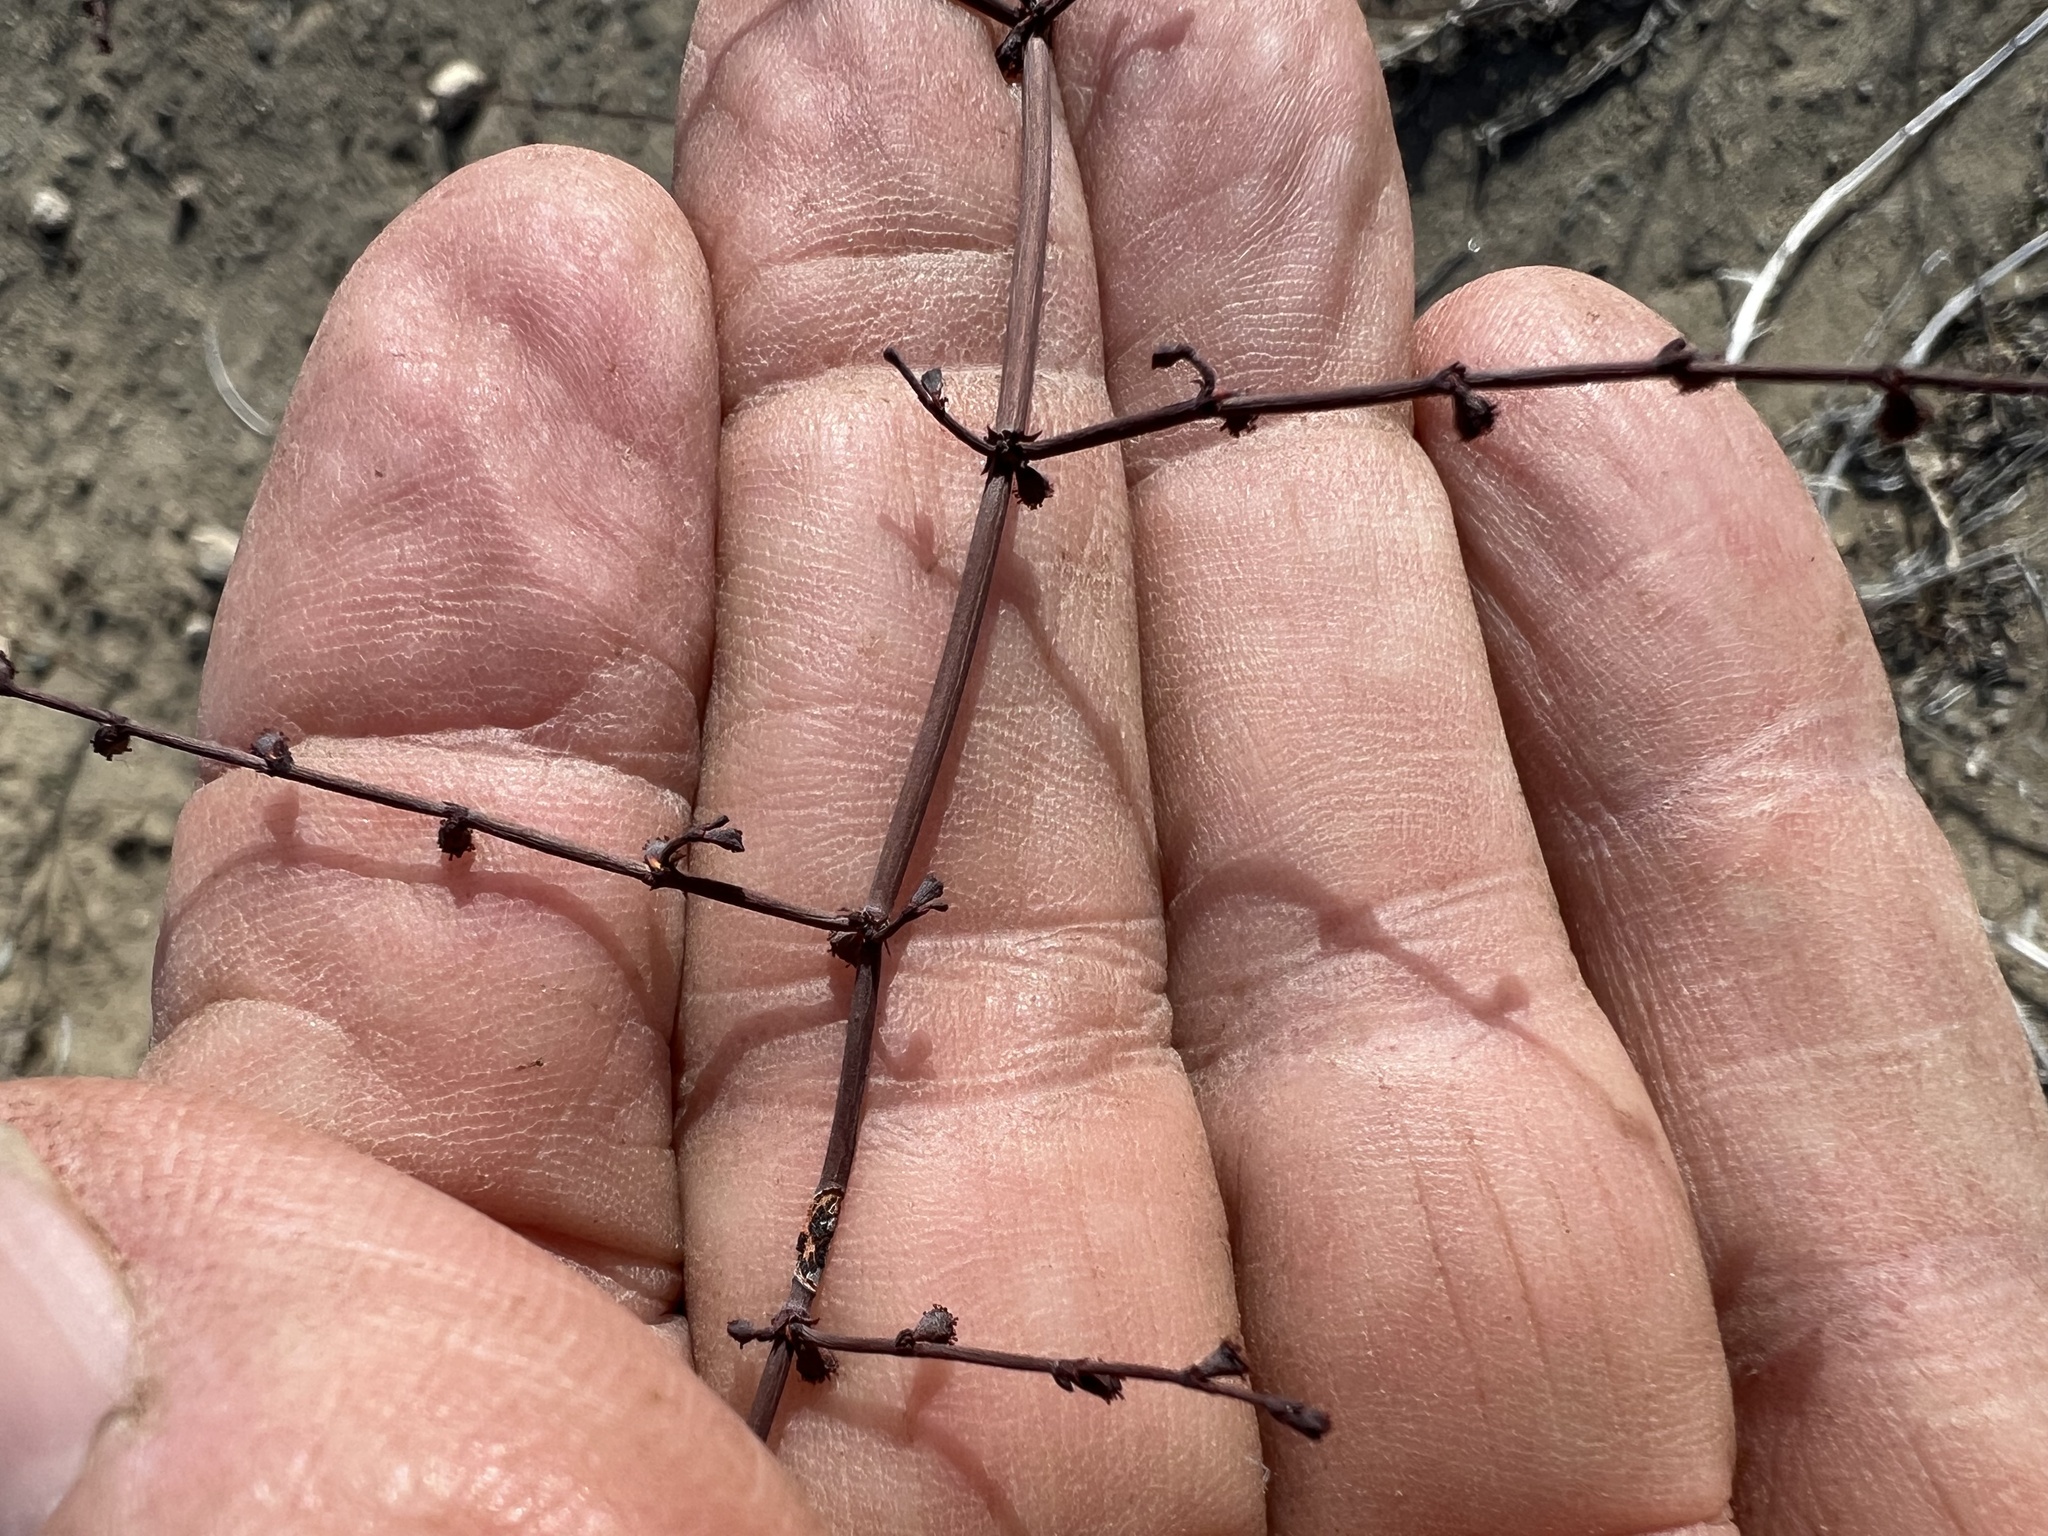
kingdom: Plantae
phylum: Tracheophyta
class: Magnoliopsida
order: Caryophyllales
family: Polygonaceae
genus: Eriogonum
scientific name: Eriogonum deflexum
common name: Skeleton-weed
